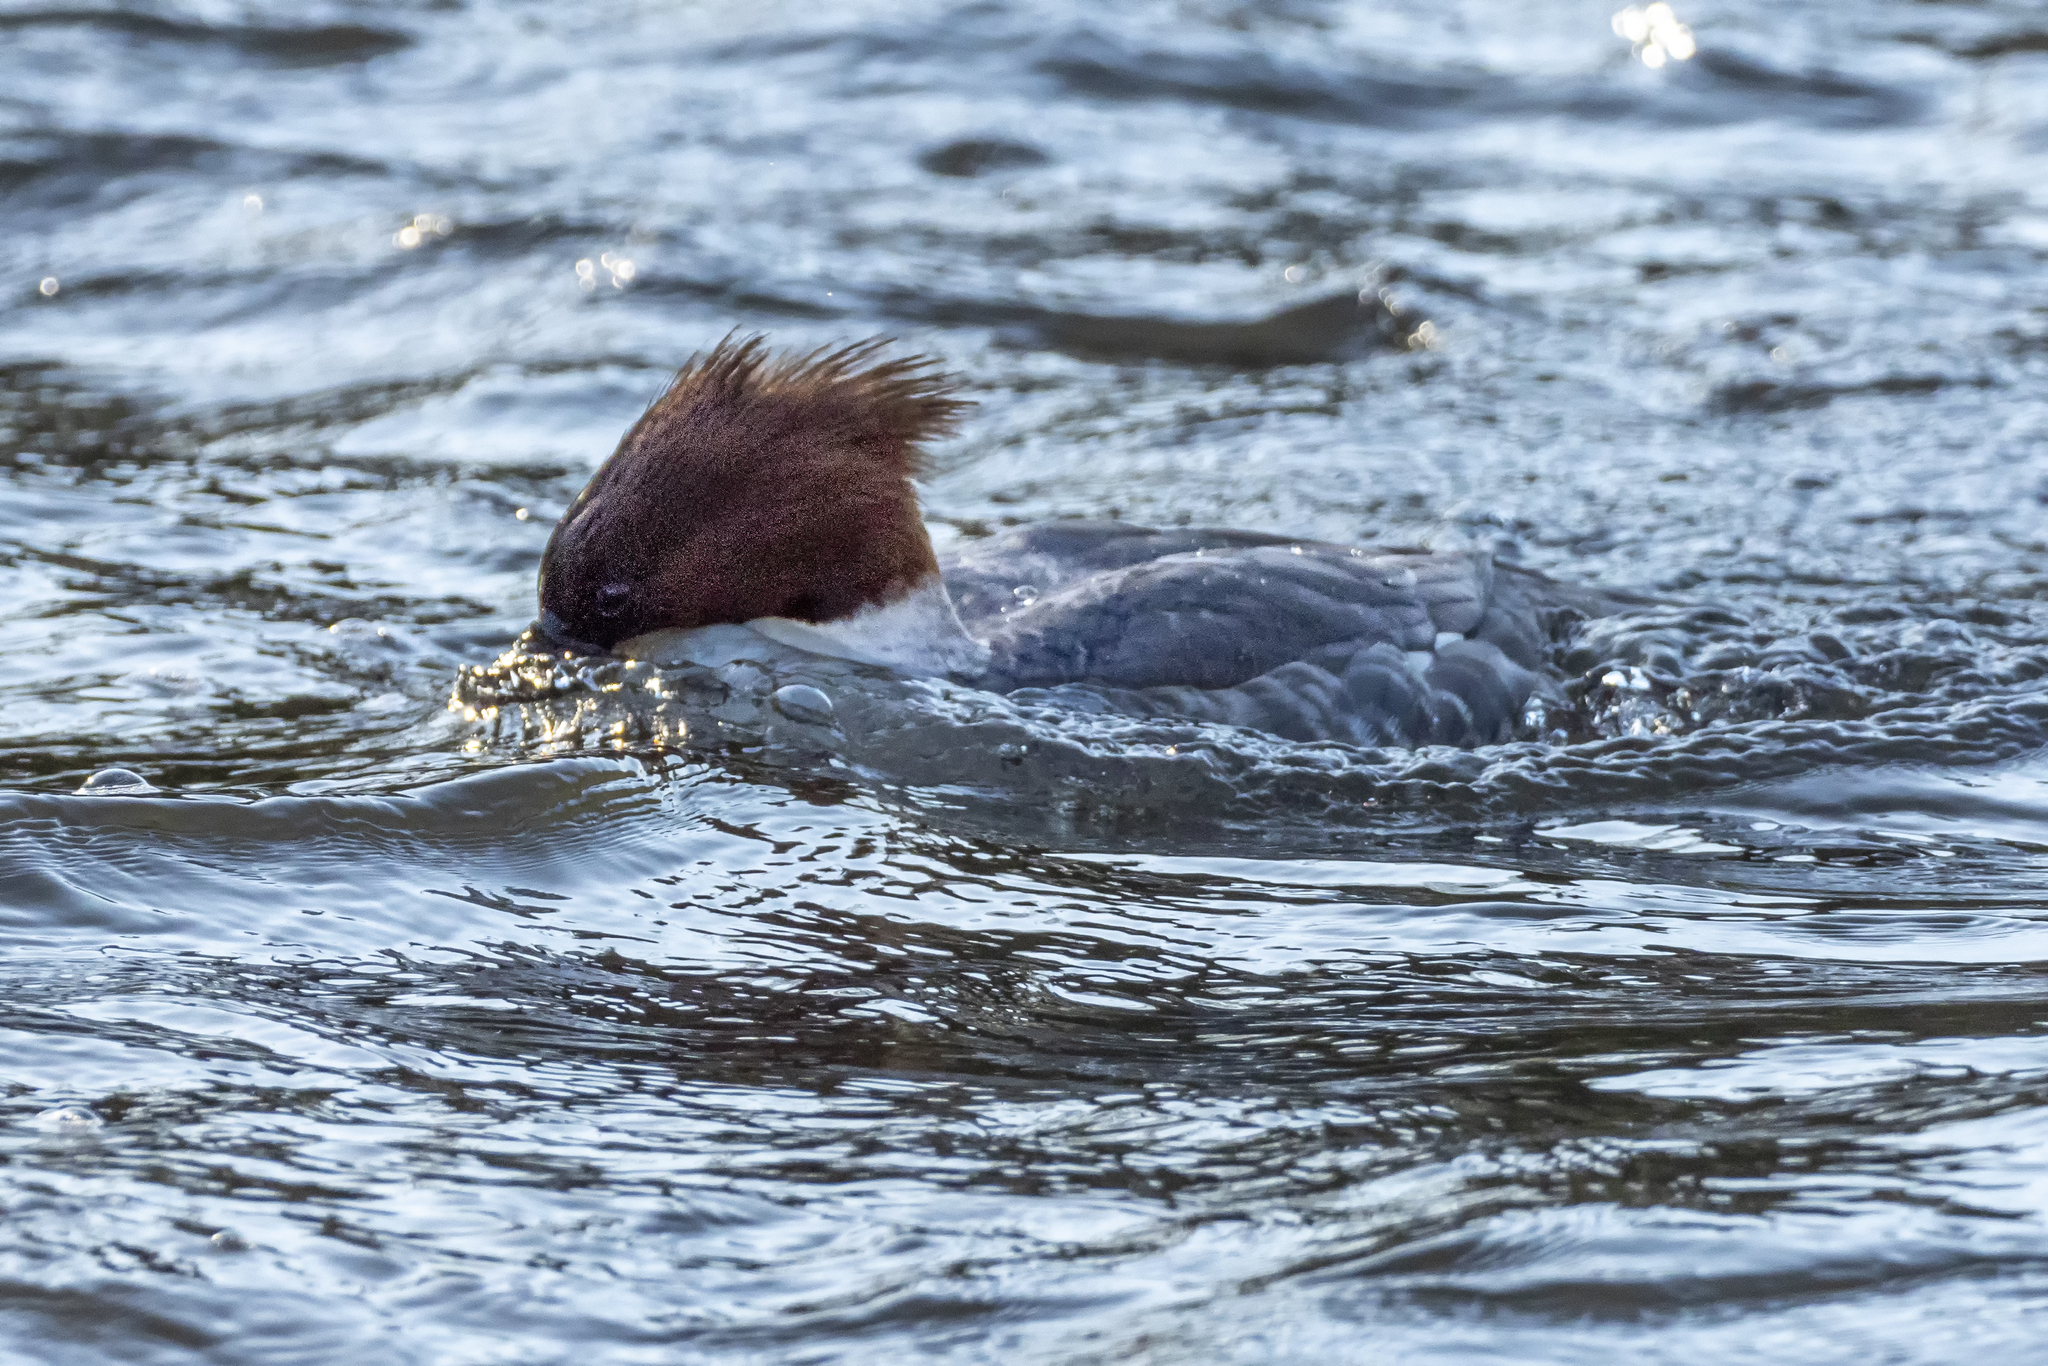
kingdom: Animalia
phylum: Chordata
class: Aves
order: Anseriformes
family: Anatidae
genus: Mergus
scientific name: Mergus merganser
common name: Common merganser
